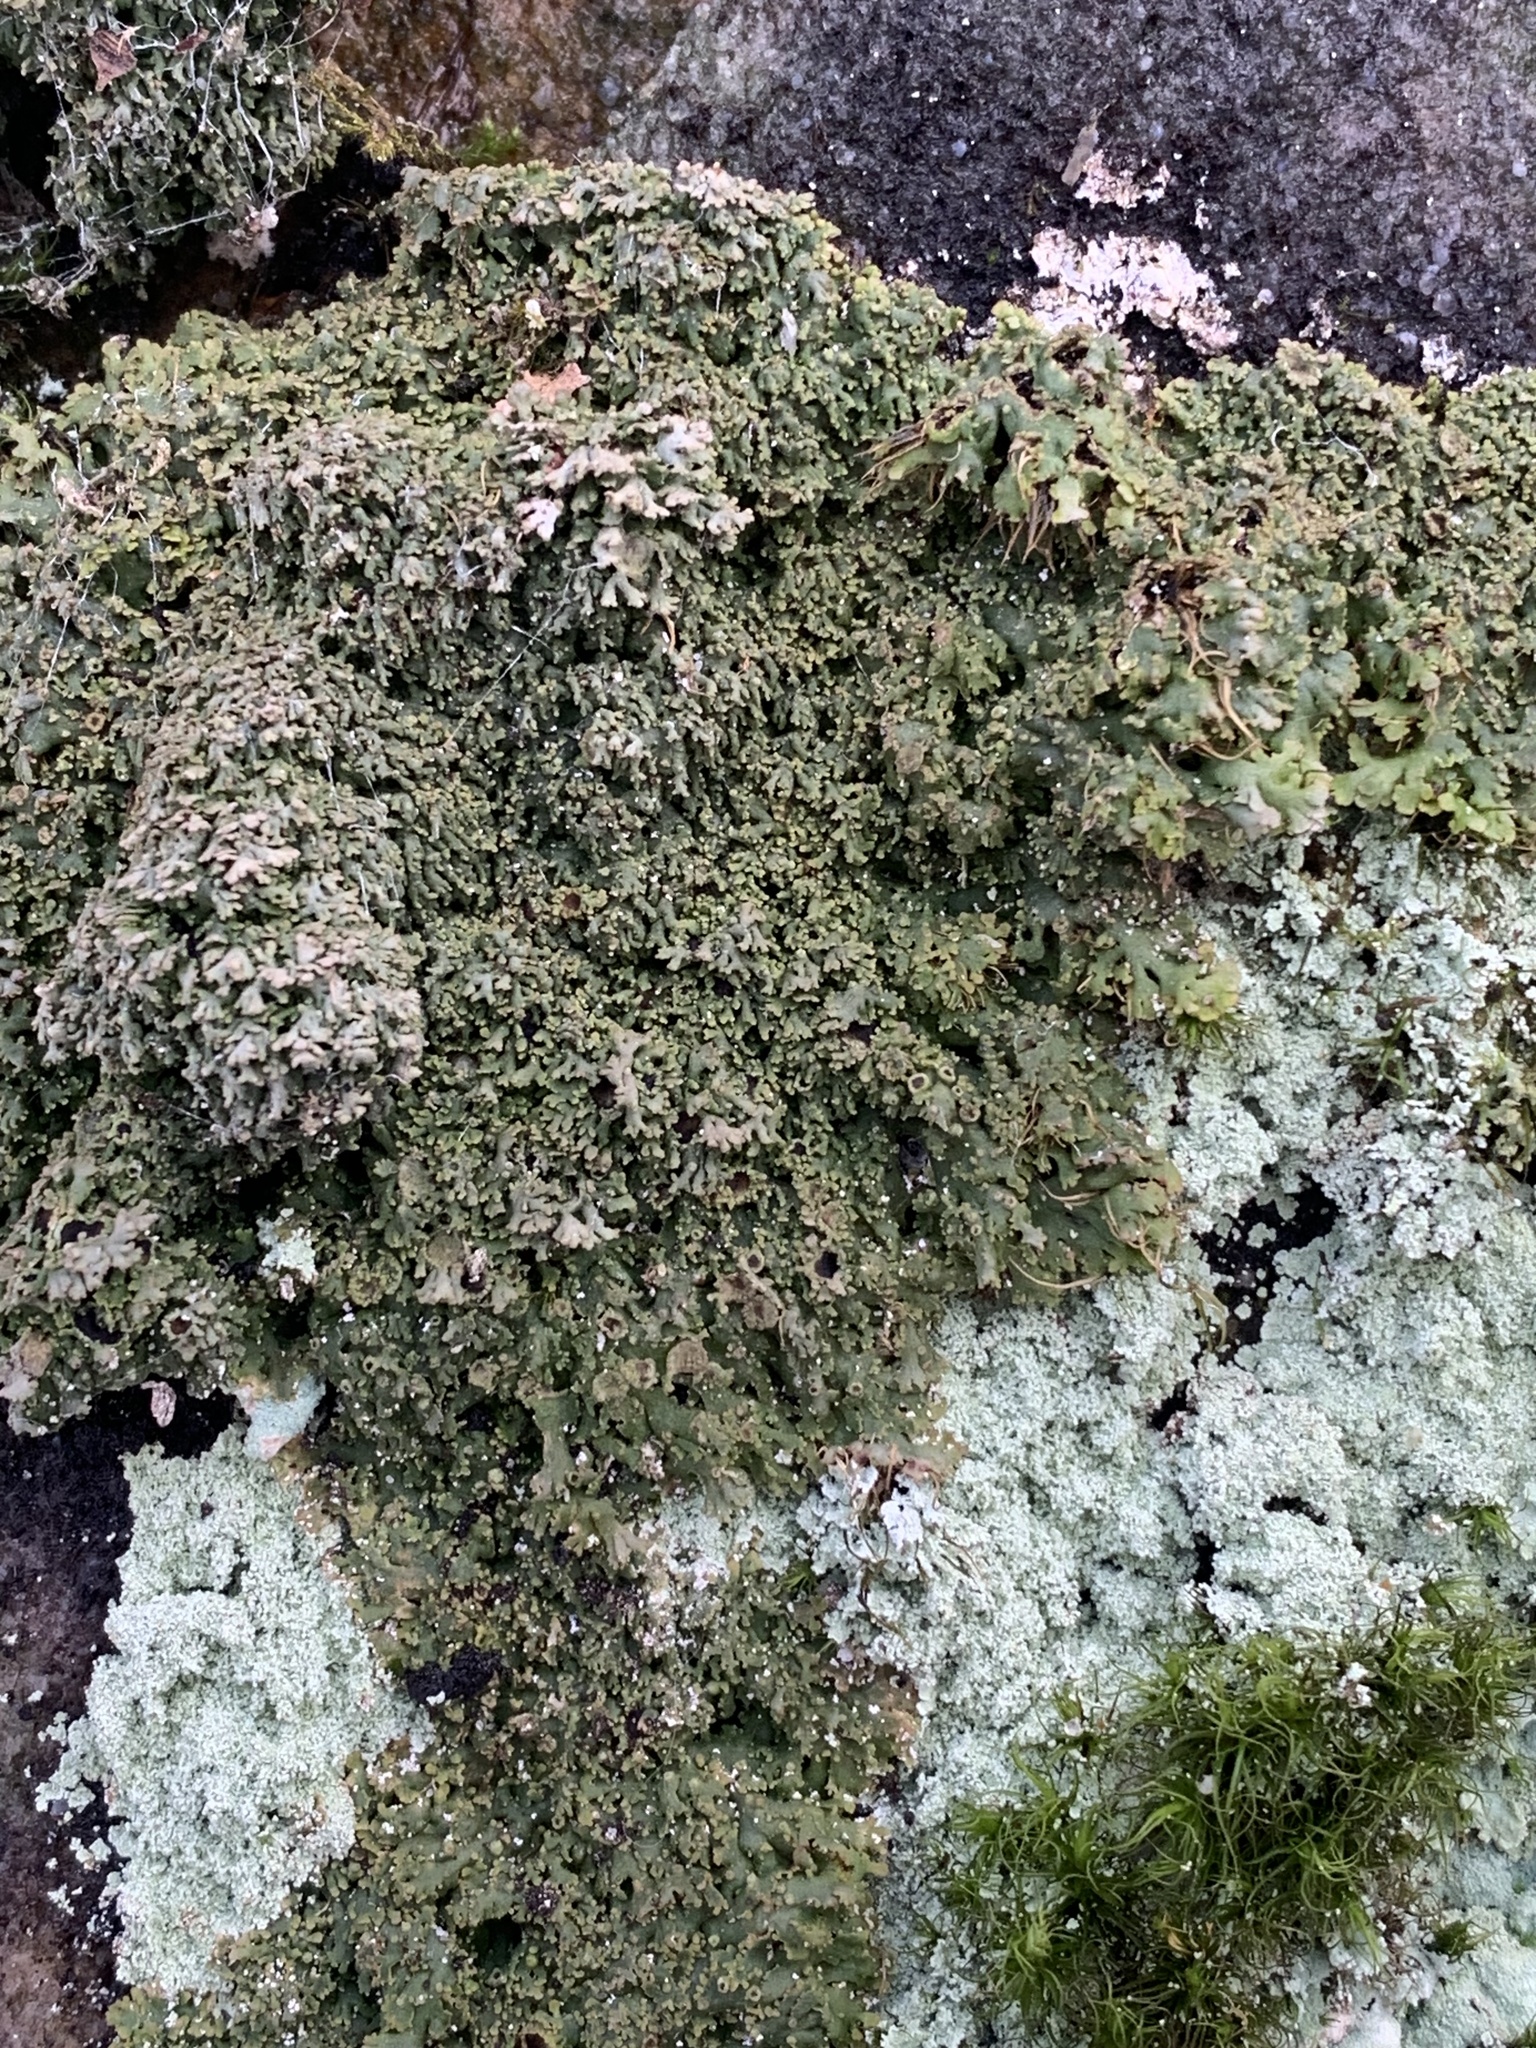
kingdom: Fungi
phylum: Ascomycota
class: Lecanoromycetes
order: Caliciales
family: Physciaceae
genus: Kurokawia
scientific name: Kurokawia palmulata
